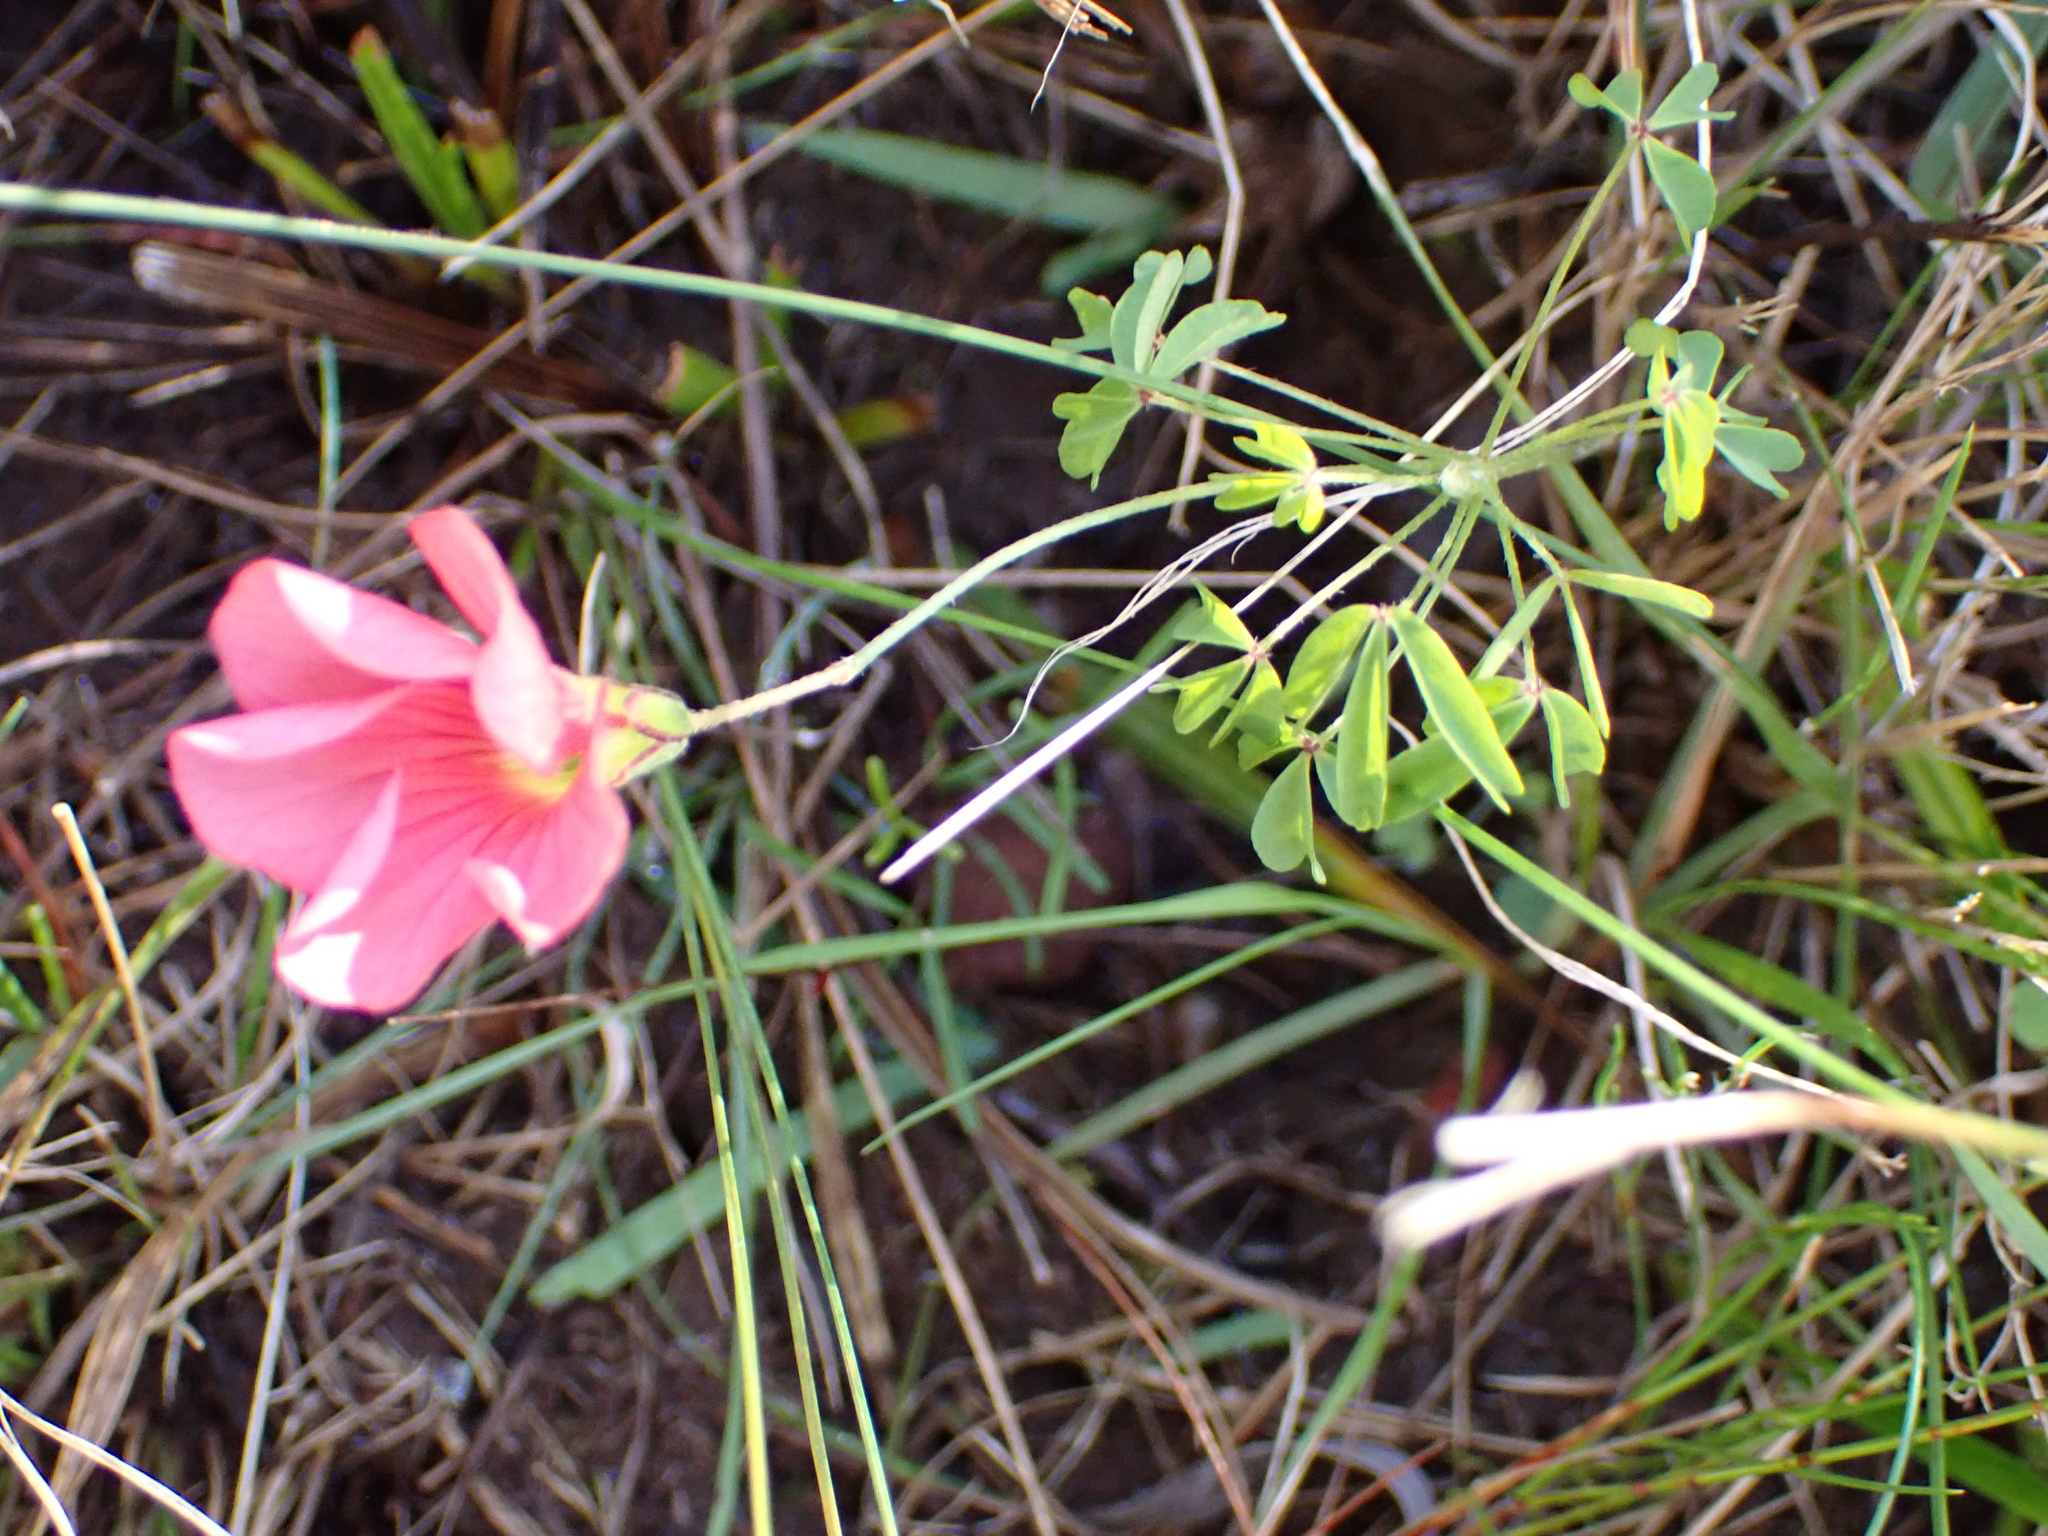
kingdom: Plantae
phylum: Tracheophyta
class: Magnoliopsida
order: Oxalidales
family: Oxalidaceae
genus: Oxalis
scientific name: Oxalis pendulifolia
